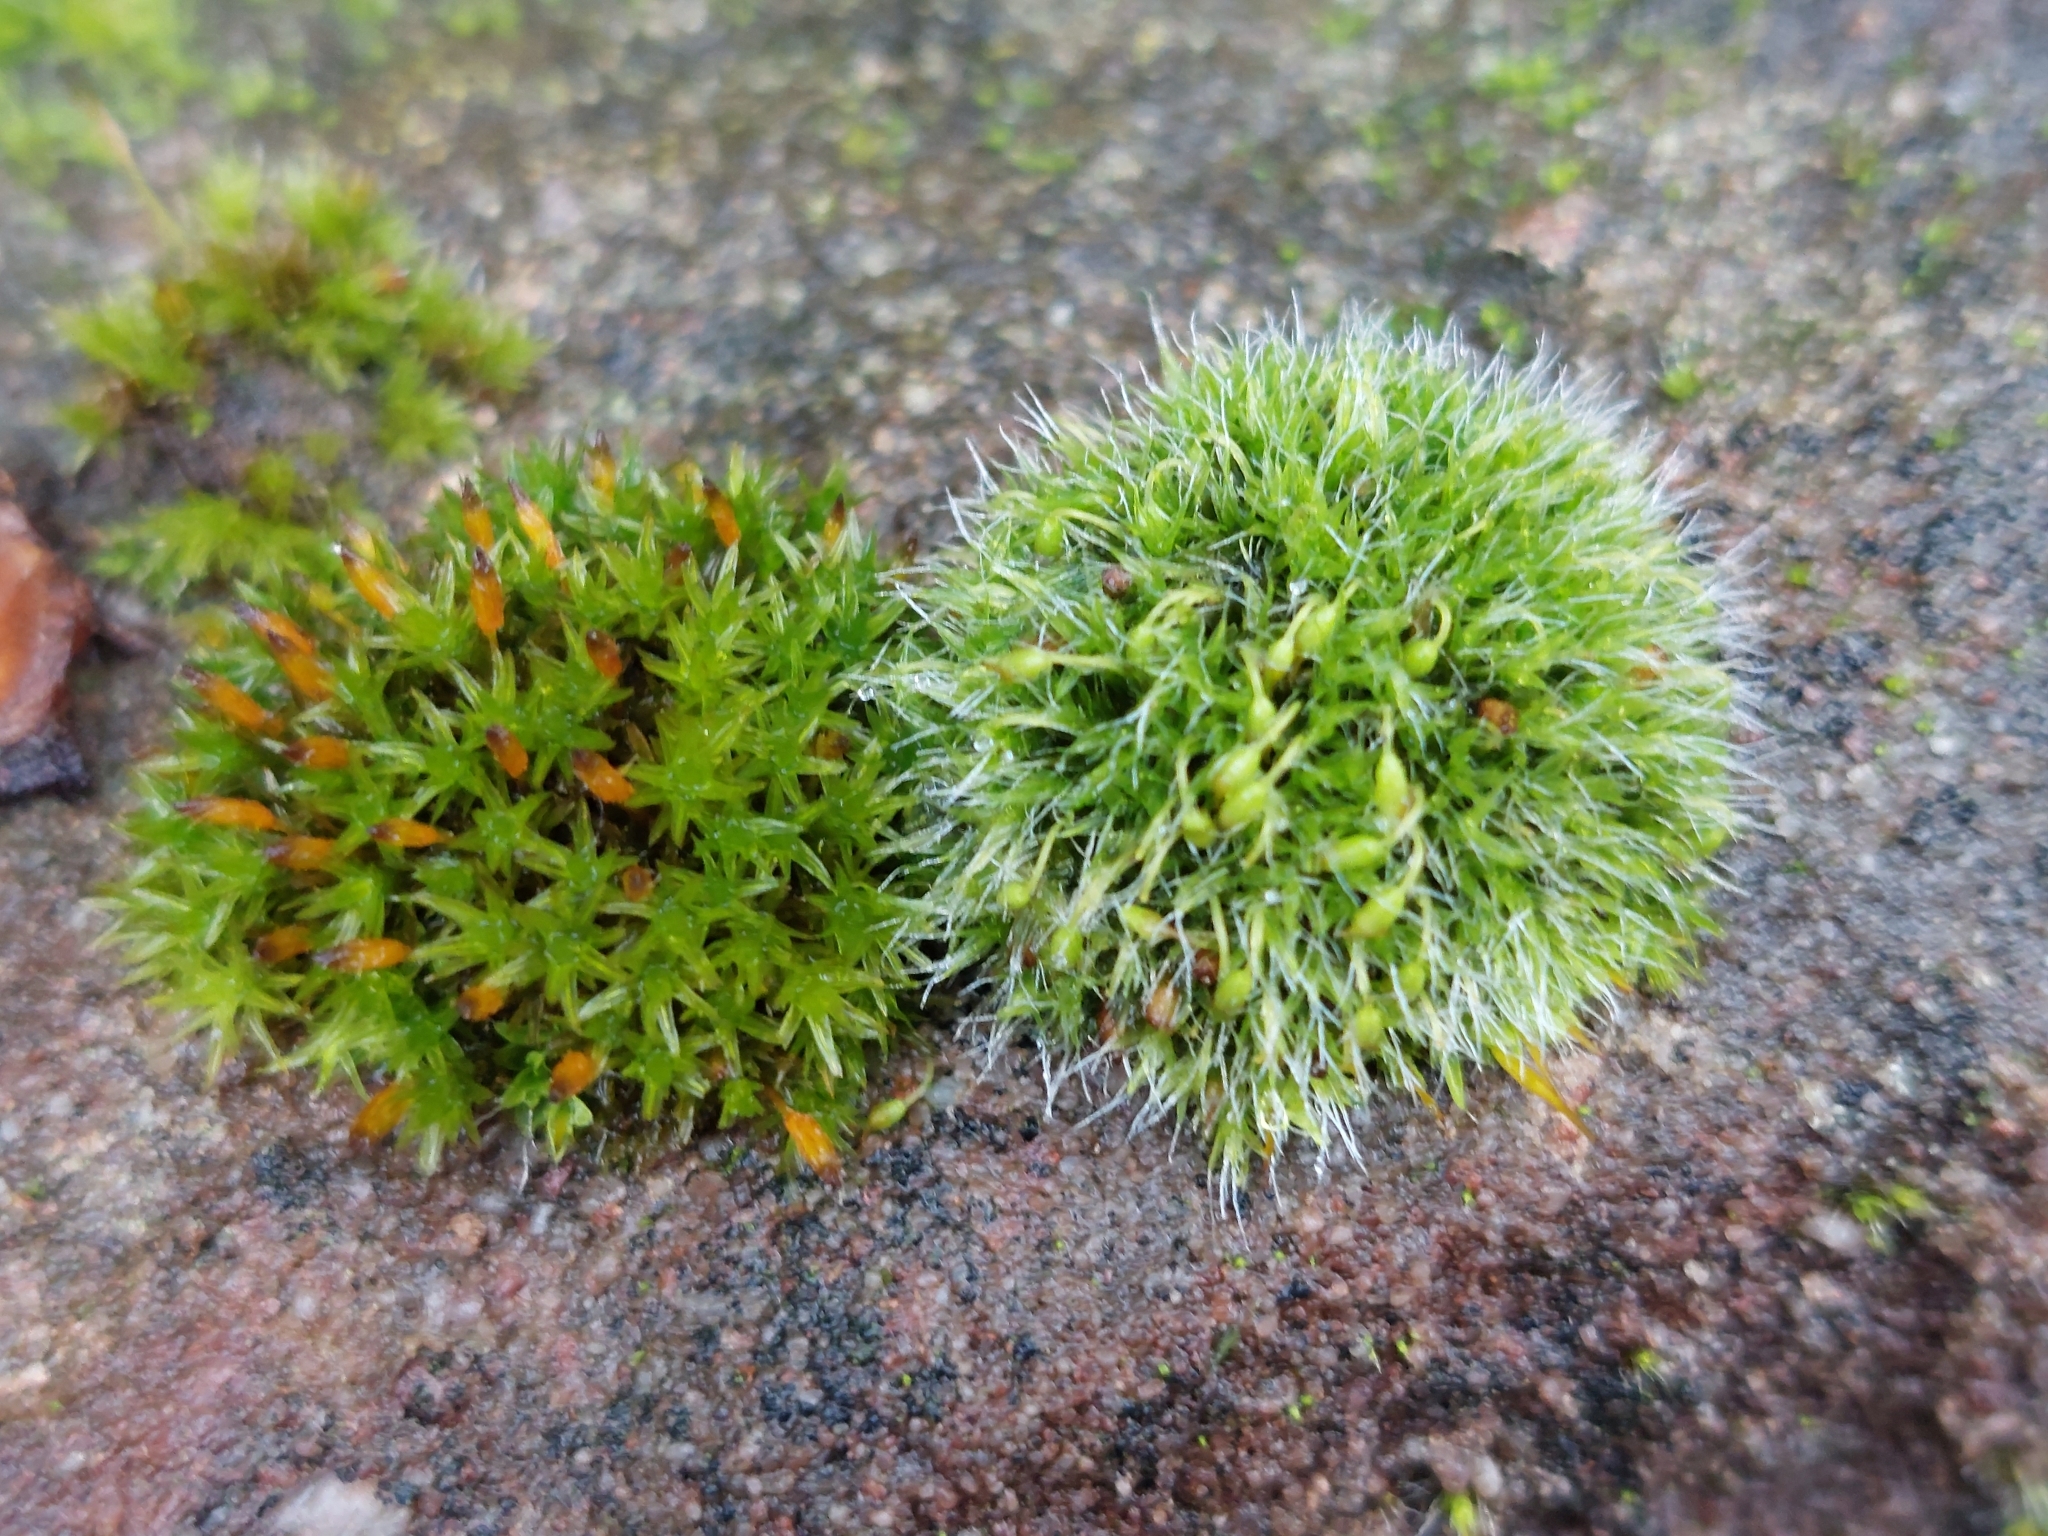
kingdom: Plantae
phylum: Bryophyta
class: Bryopsida
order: Orthotrichales
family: Orthotrichaceae
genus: Orthotrichum
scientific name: Orthotrichum anomalum
